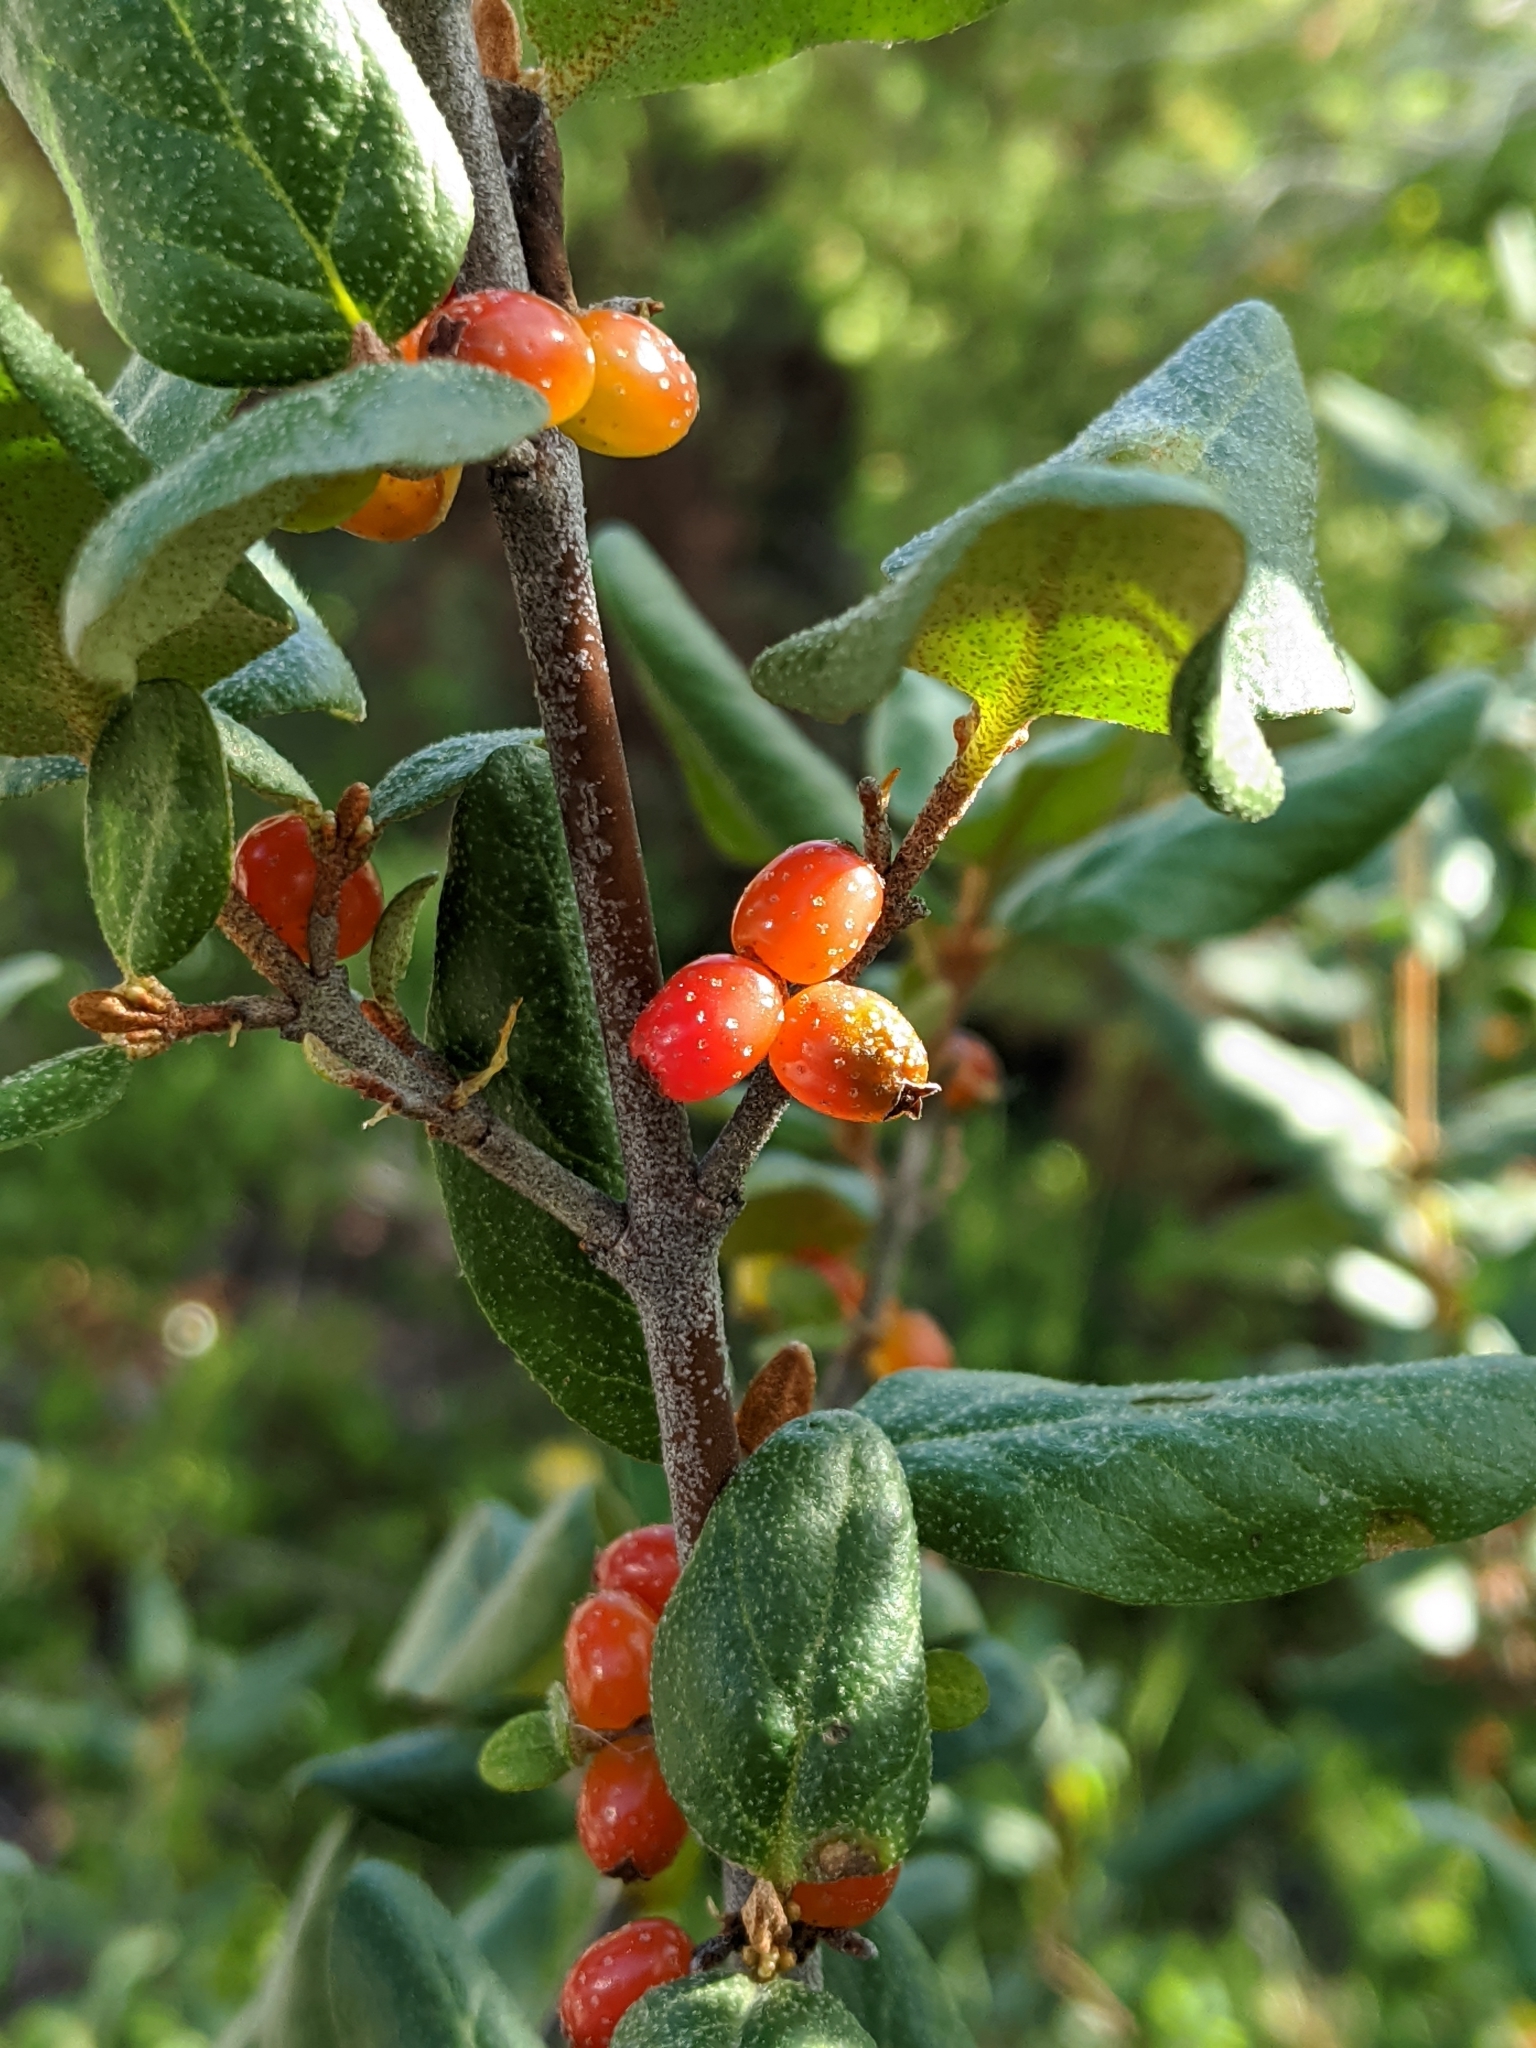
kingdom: Plantae
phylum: Tracheophyta
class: Magnoliopsida
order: Rosales
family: Elaeagnaceae
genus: Shepherdia
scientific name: Shepherdia canadensis
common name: Soapberry
